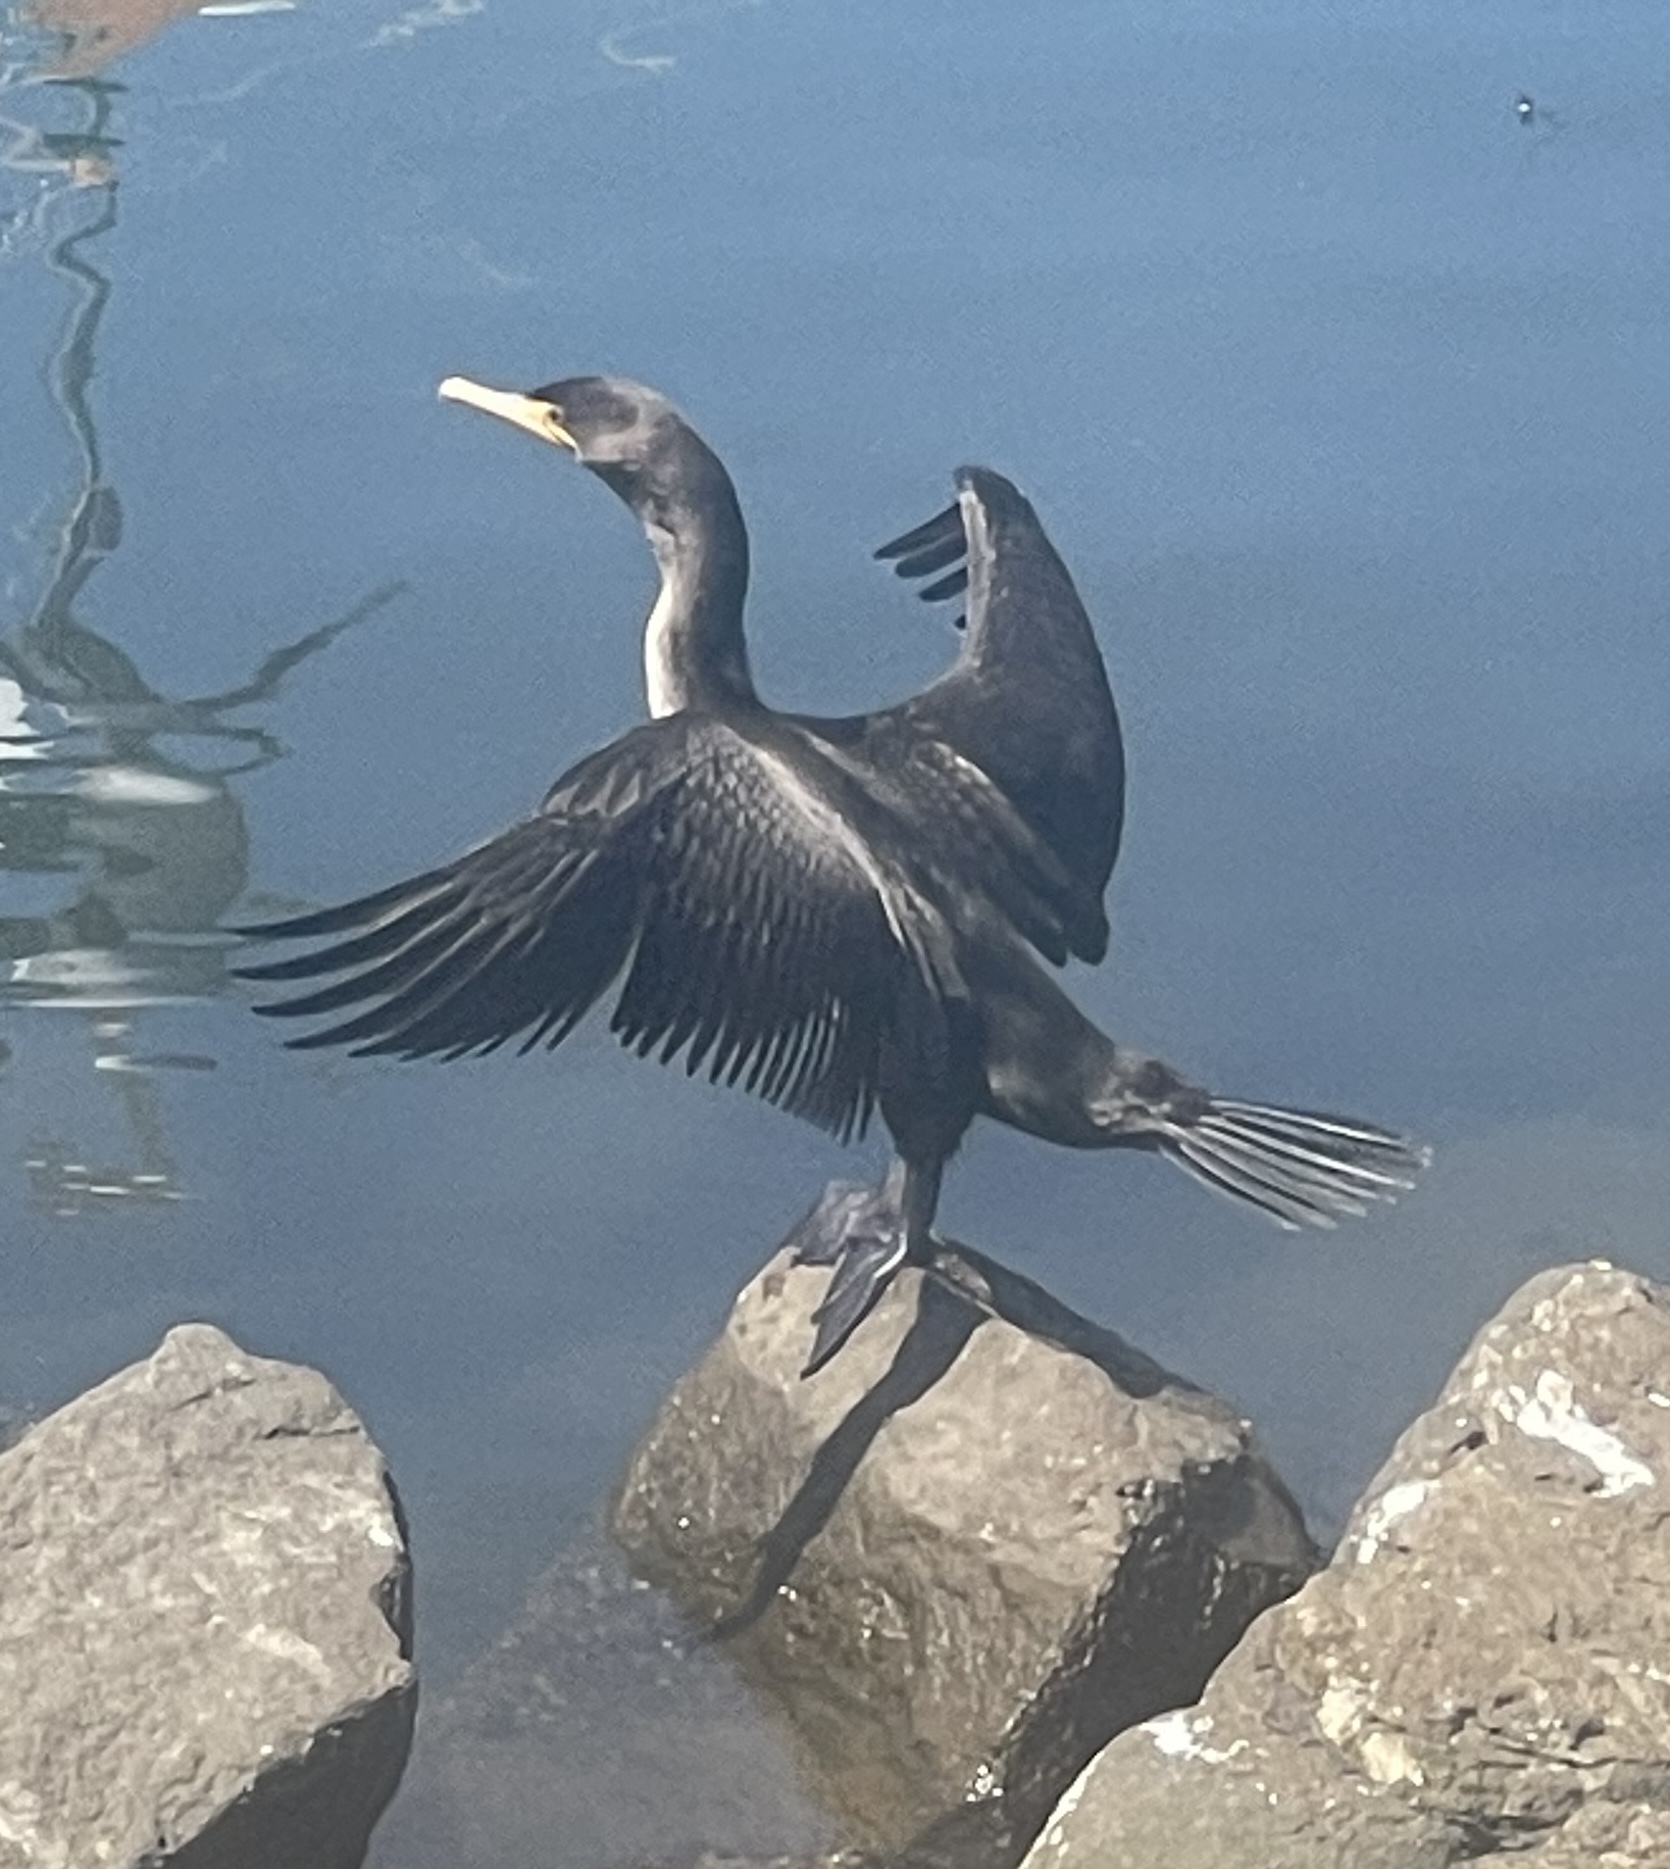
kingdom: Animalia
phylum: Chordata
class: Aves
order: Suliformes
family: Phalacrocoracidae
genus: Phalacrocorax
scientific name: Phalacrocorax auritus
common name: Double-crested cormorant
